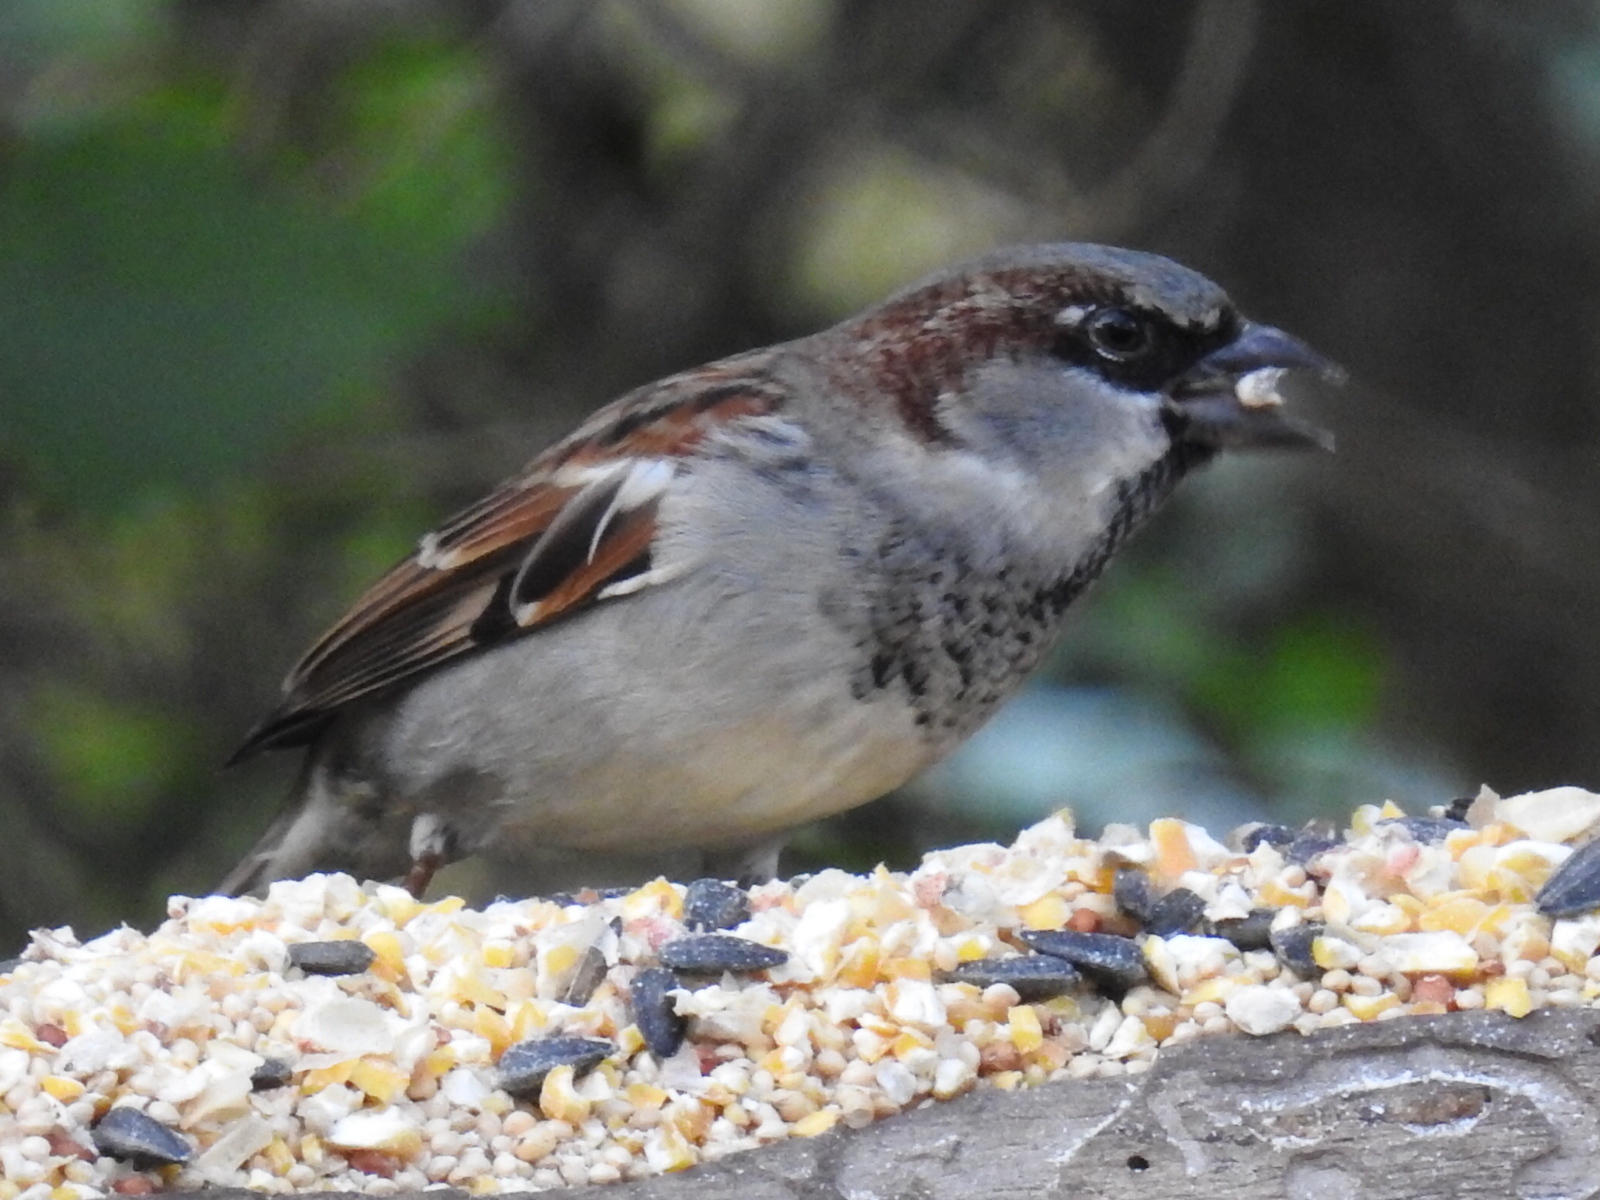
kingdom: Animalia
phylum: Chordata
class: Aves
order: Passeriformes
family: Passeridae
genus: Passer
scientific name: Passer domesticus
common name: House sparrow
